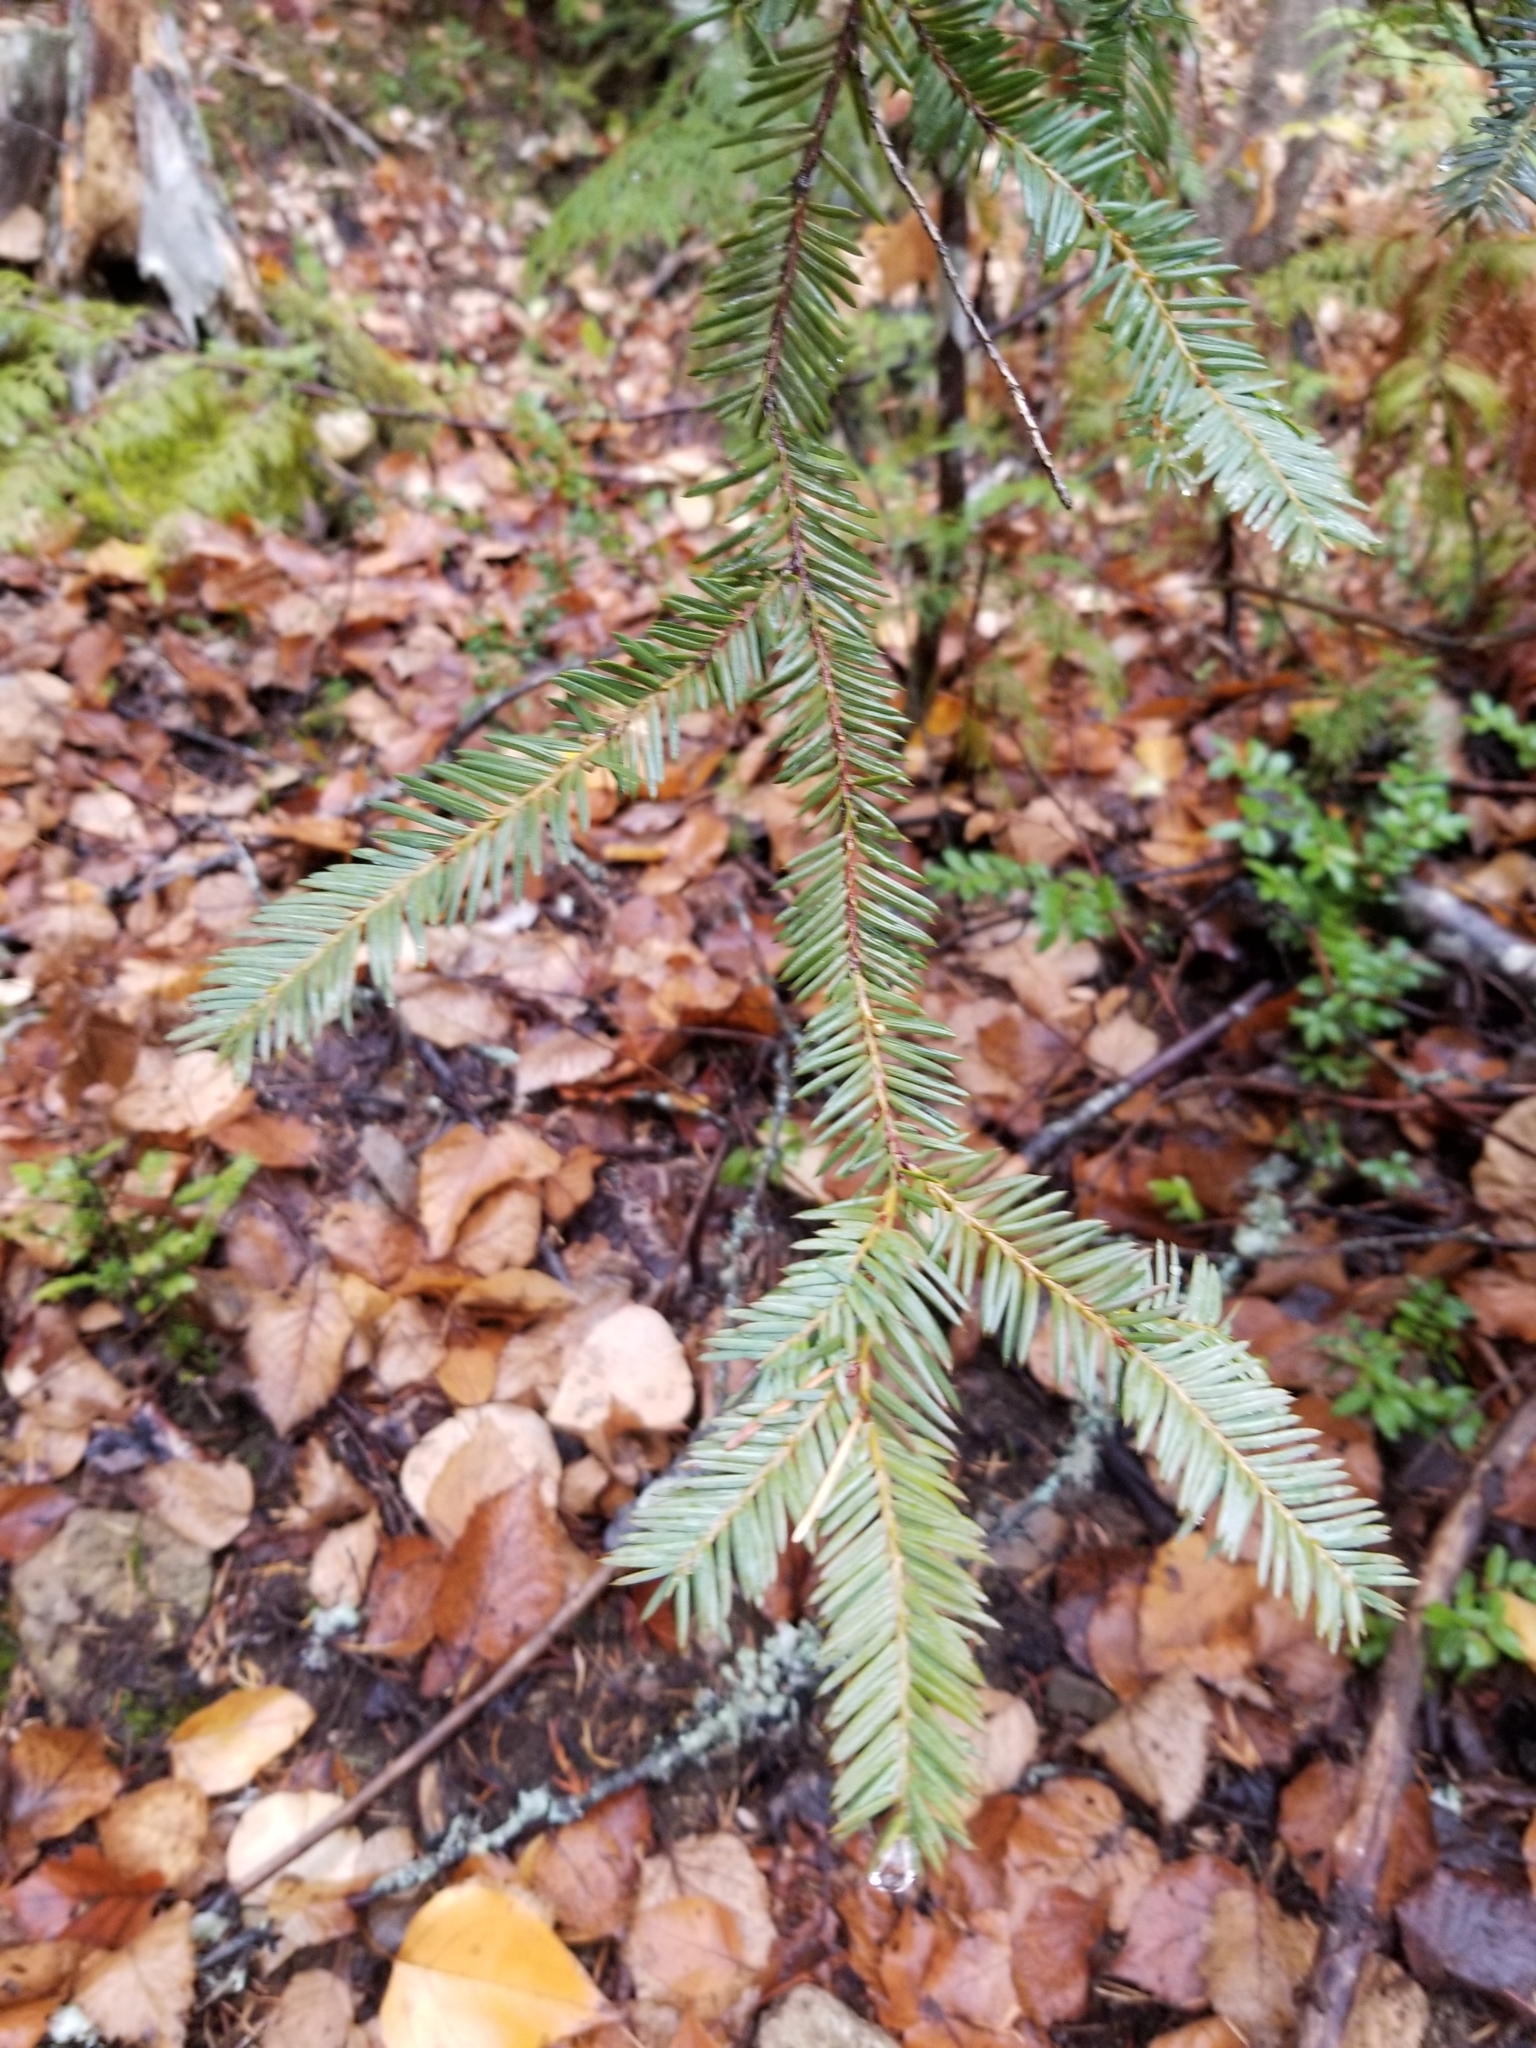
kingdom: Plantae
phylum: Tracheophyta
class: Pinopsida
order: Pinales
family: Taxaceae
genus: Taxus
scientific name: Taxus brevifolia
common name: Pacific yew
